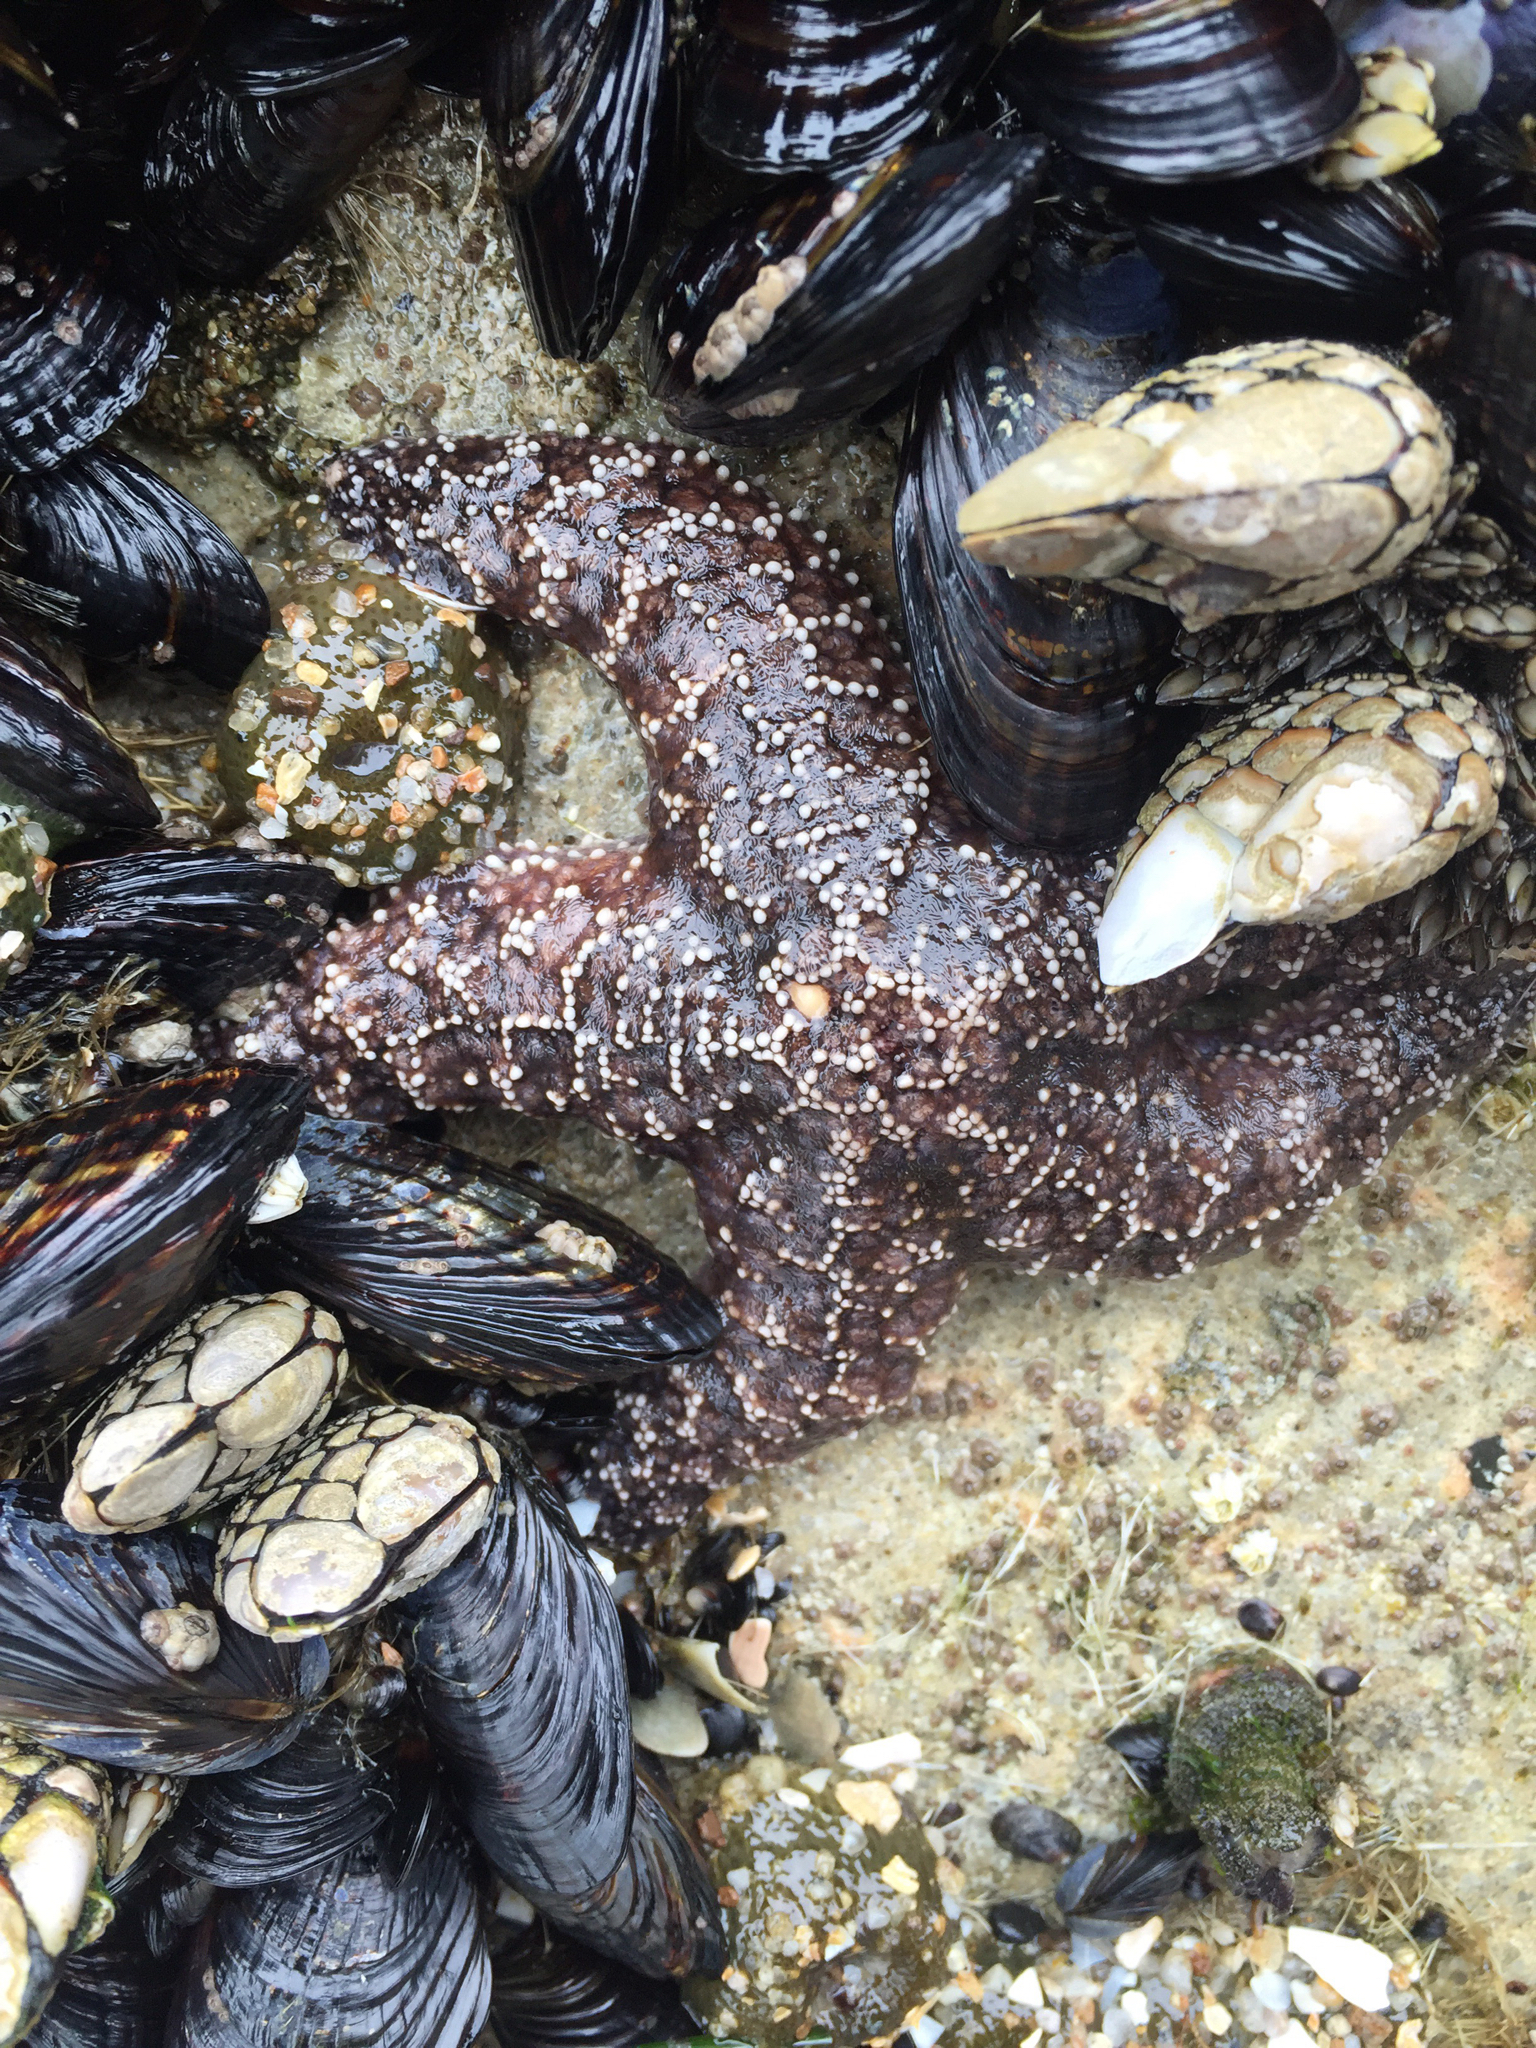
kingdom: Animalia
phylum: Echinodermata
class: Asteroidea
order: Forcipulatida
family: Asteriidae
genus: Pisaster
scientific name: Pisaster ochraceus
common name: Ochre stars
